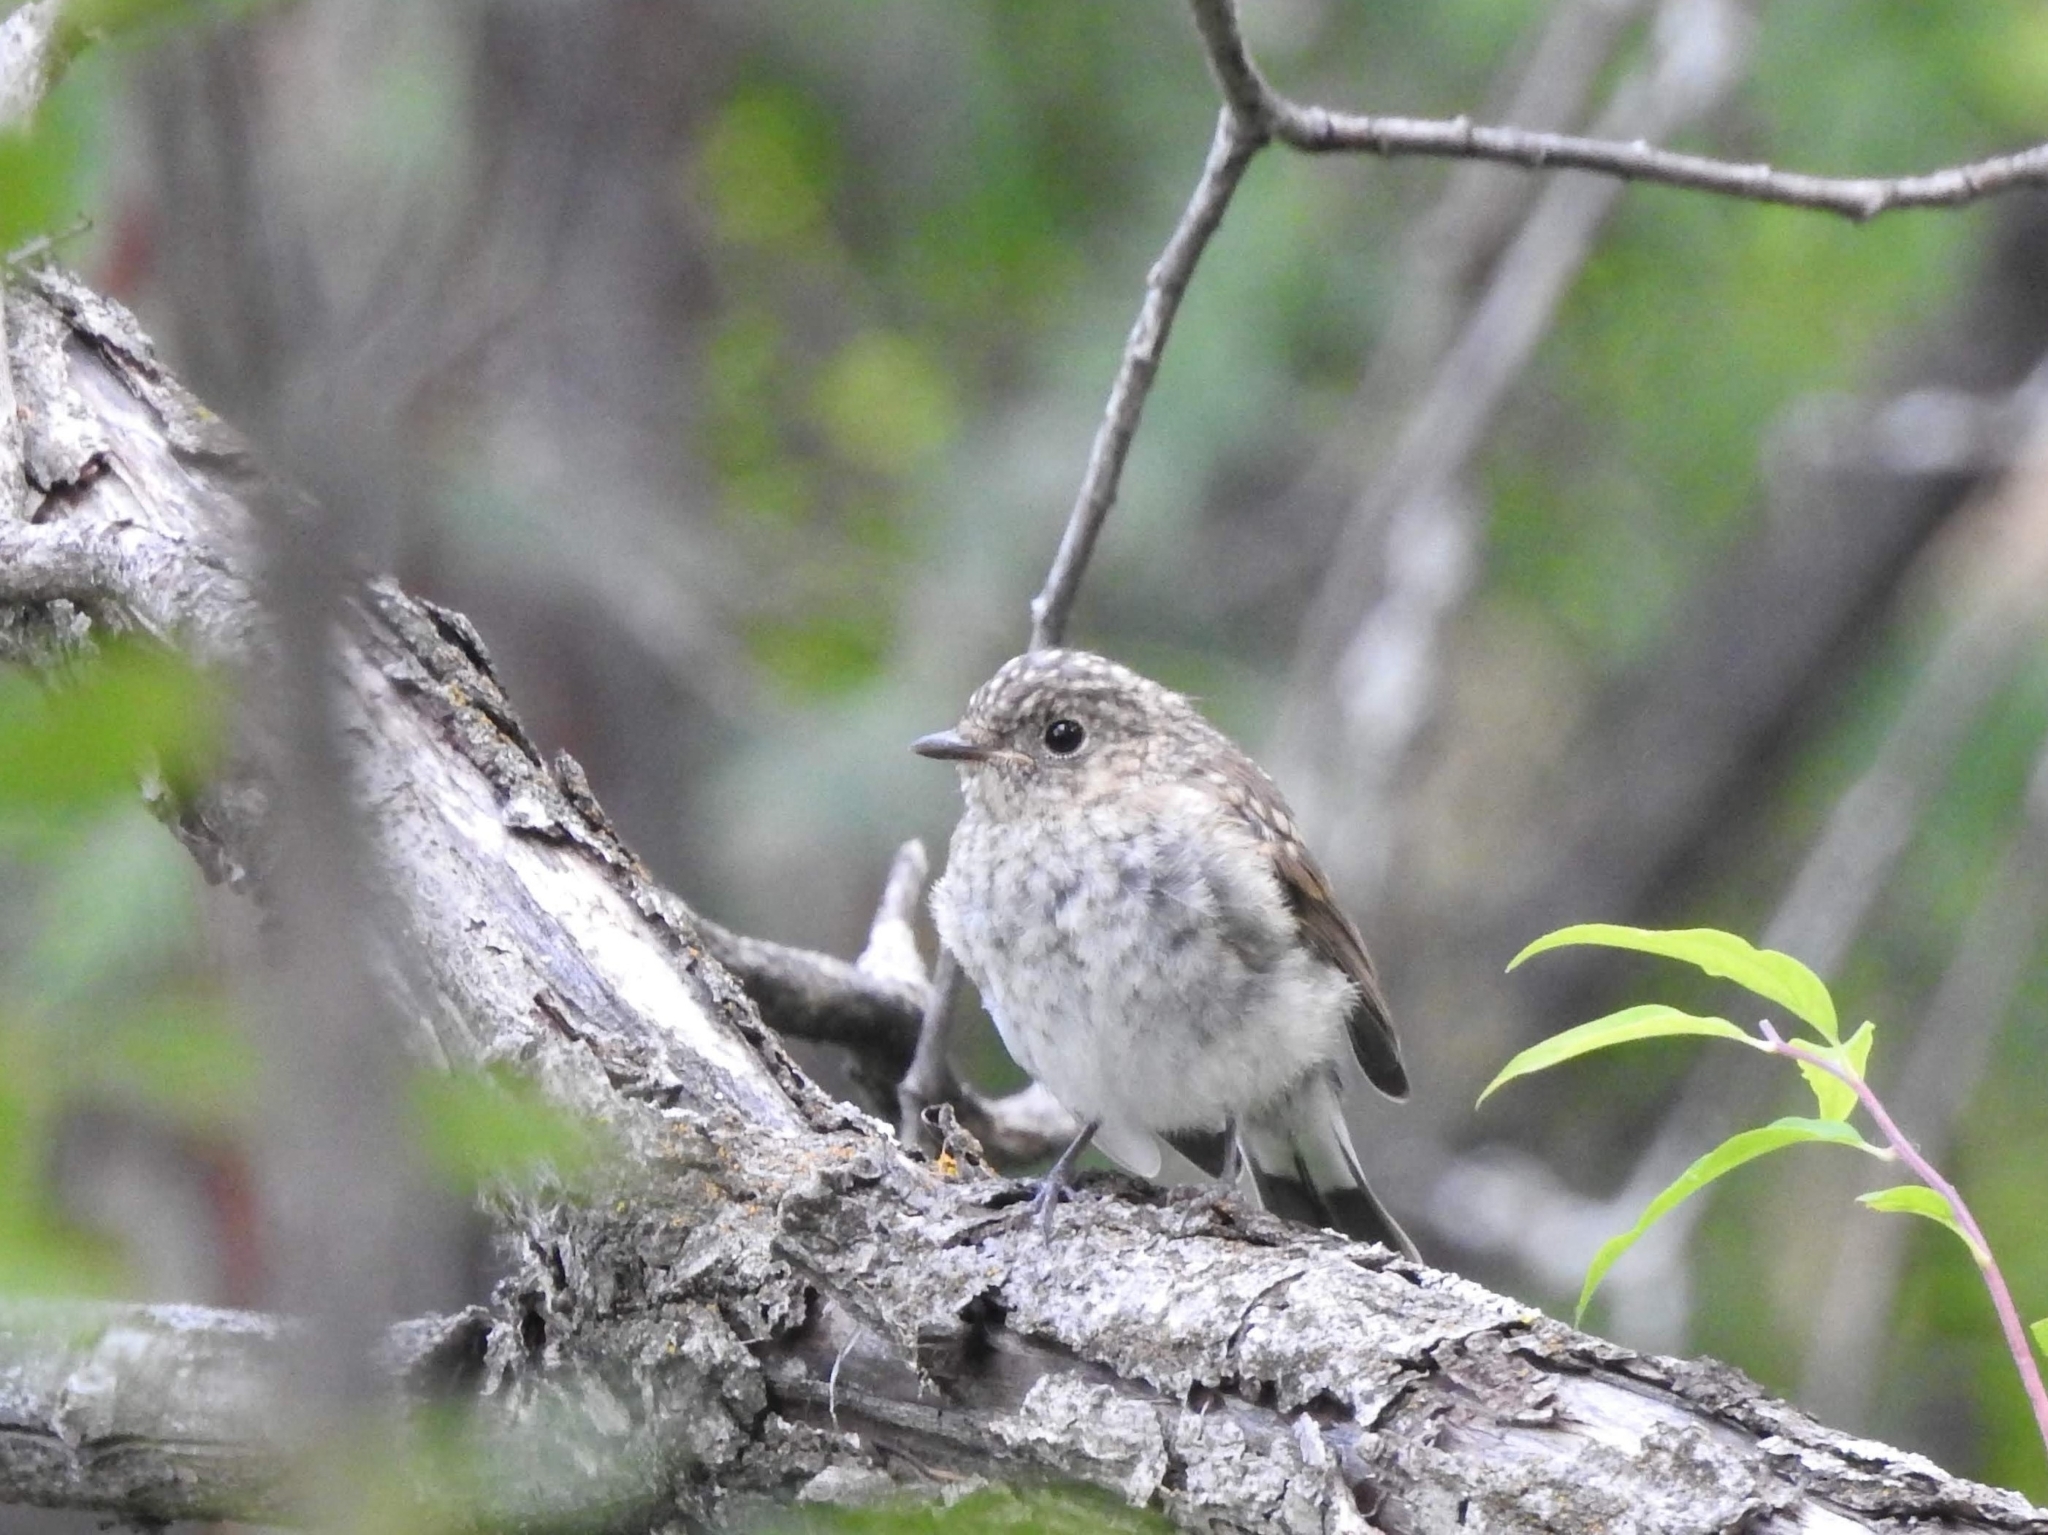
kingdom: Animalia
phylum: Chordata
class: Aves
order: Passeriformes
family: Muscicapidae
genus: Ficedula
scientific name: Ficedula albicilla
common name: Taiga flycatcher
